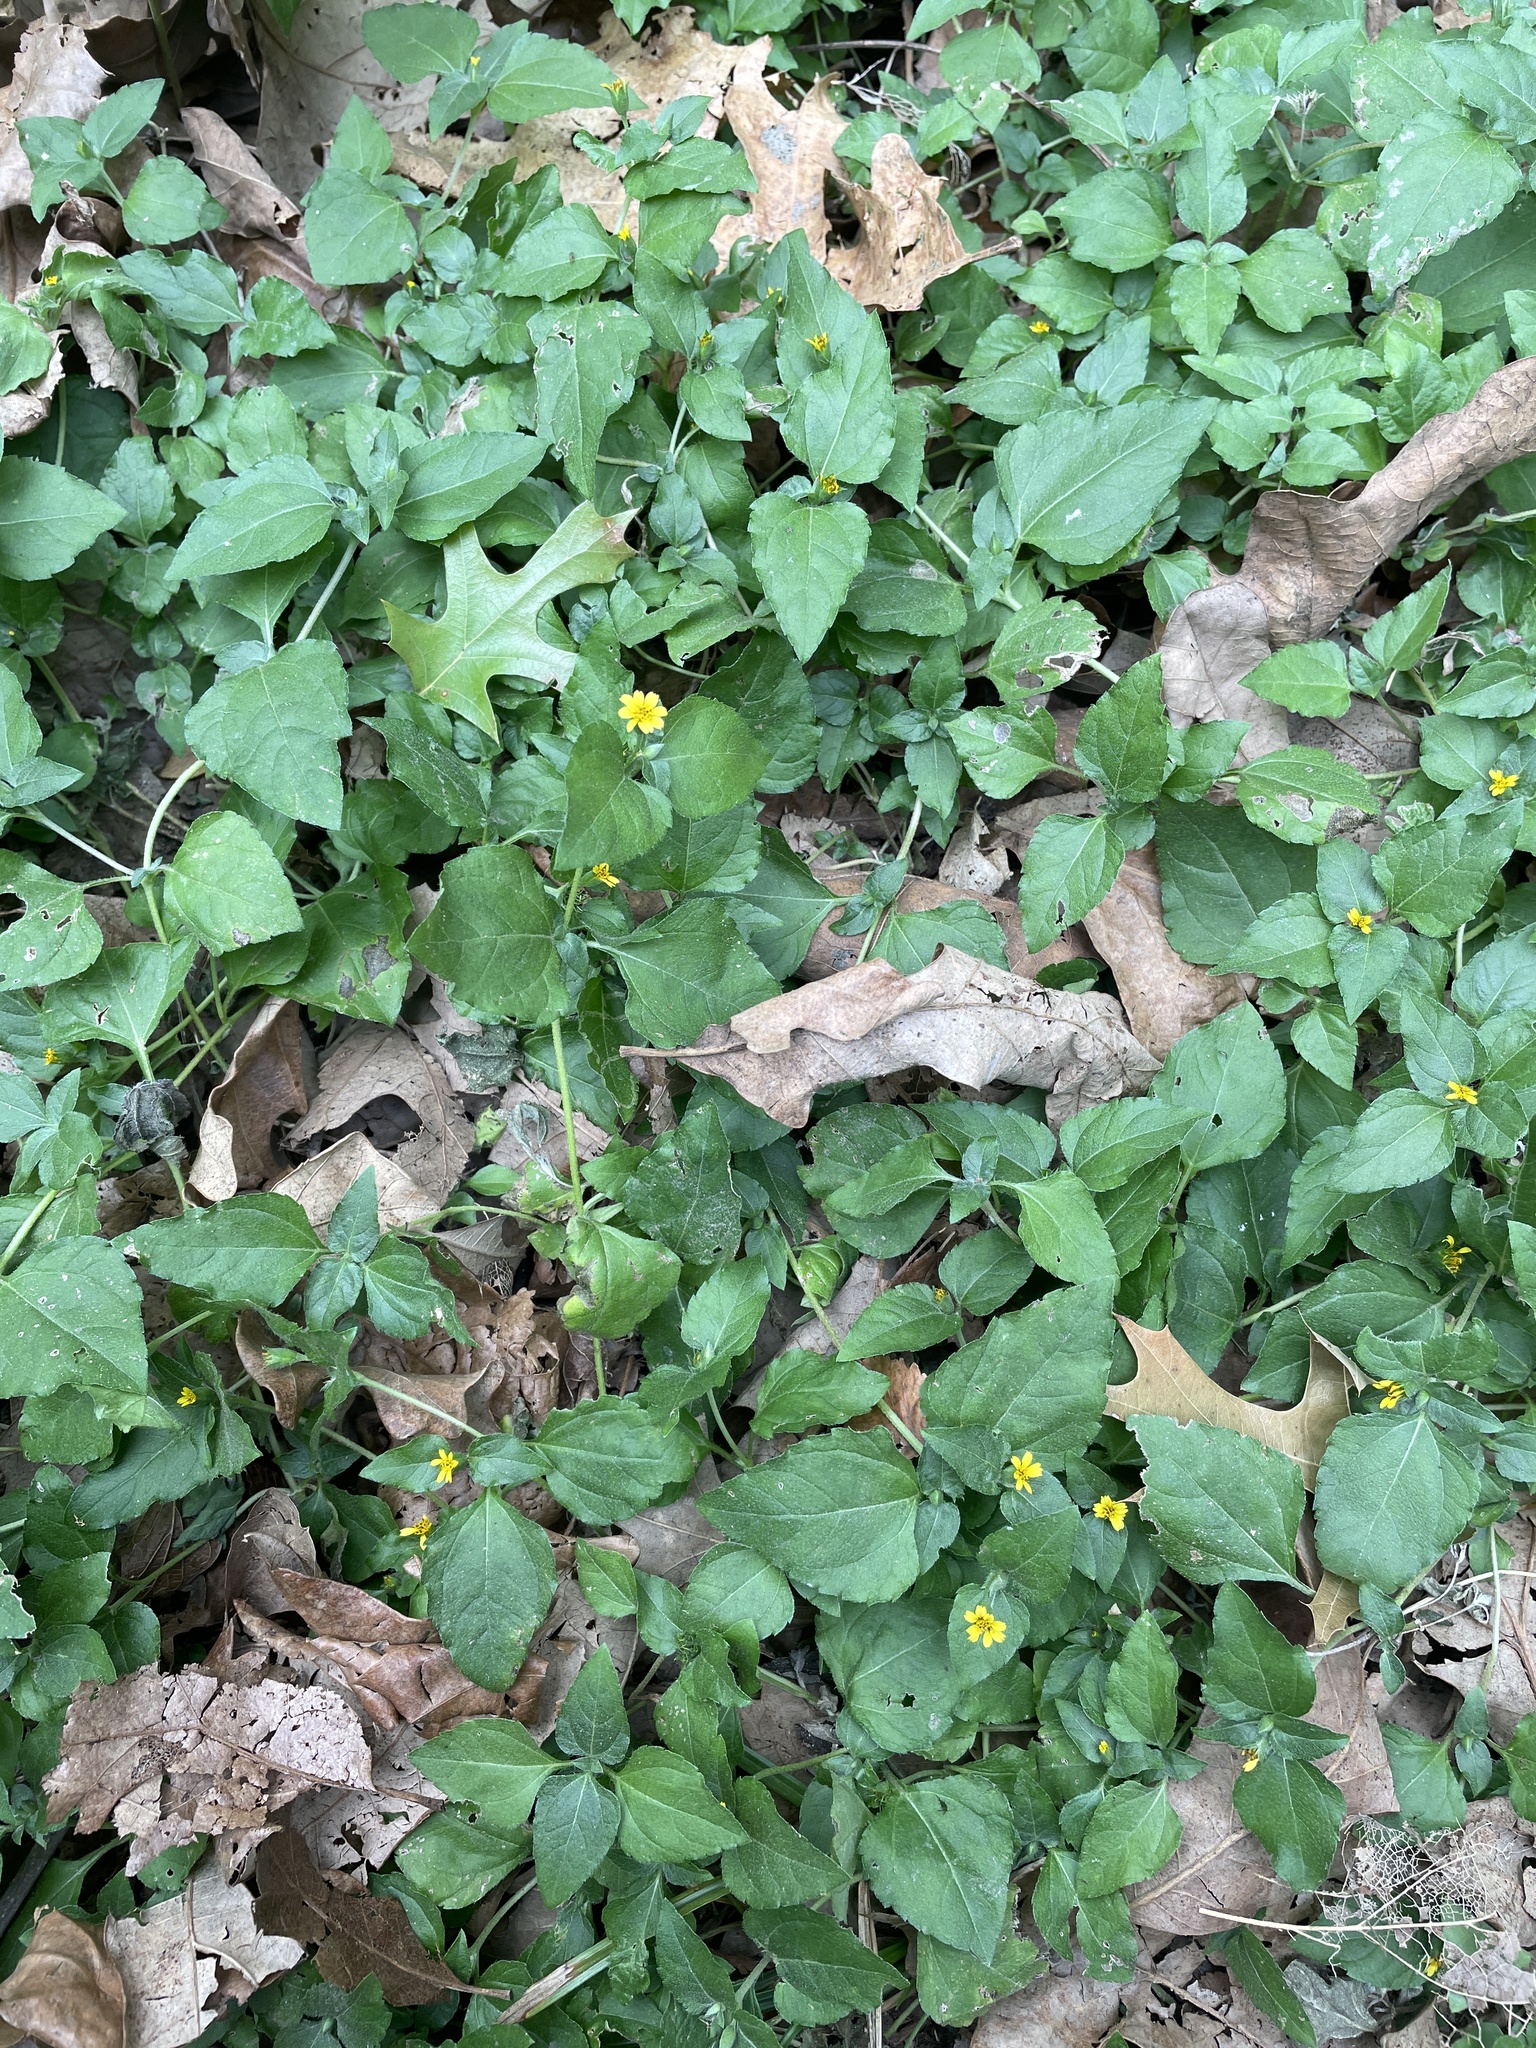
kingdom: Plantae
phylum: Tracheophyta
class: Magnoliopsida
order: Asterales
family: Asteraceae
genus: Calyptocarpus
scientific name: Calyptocarpus vialis
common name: Straggler daisy
